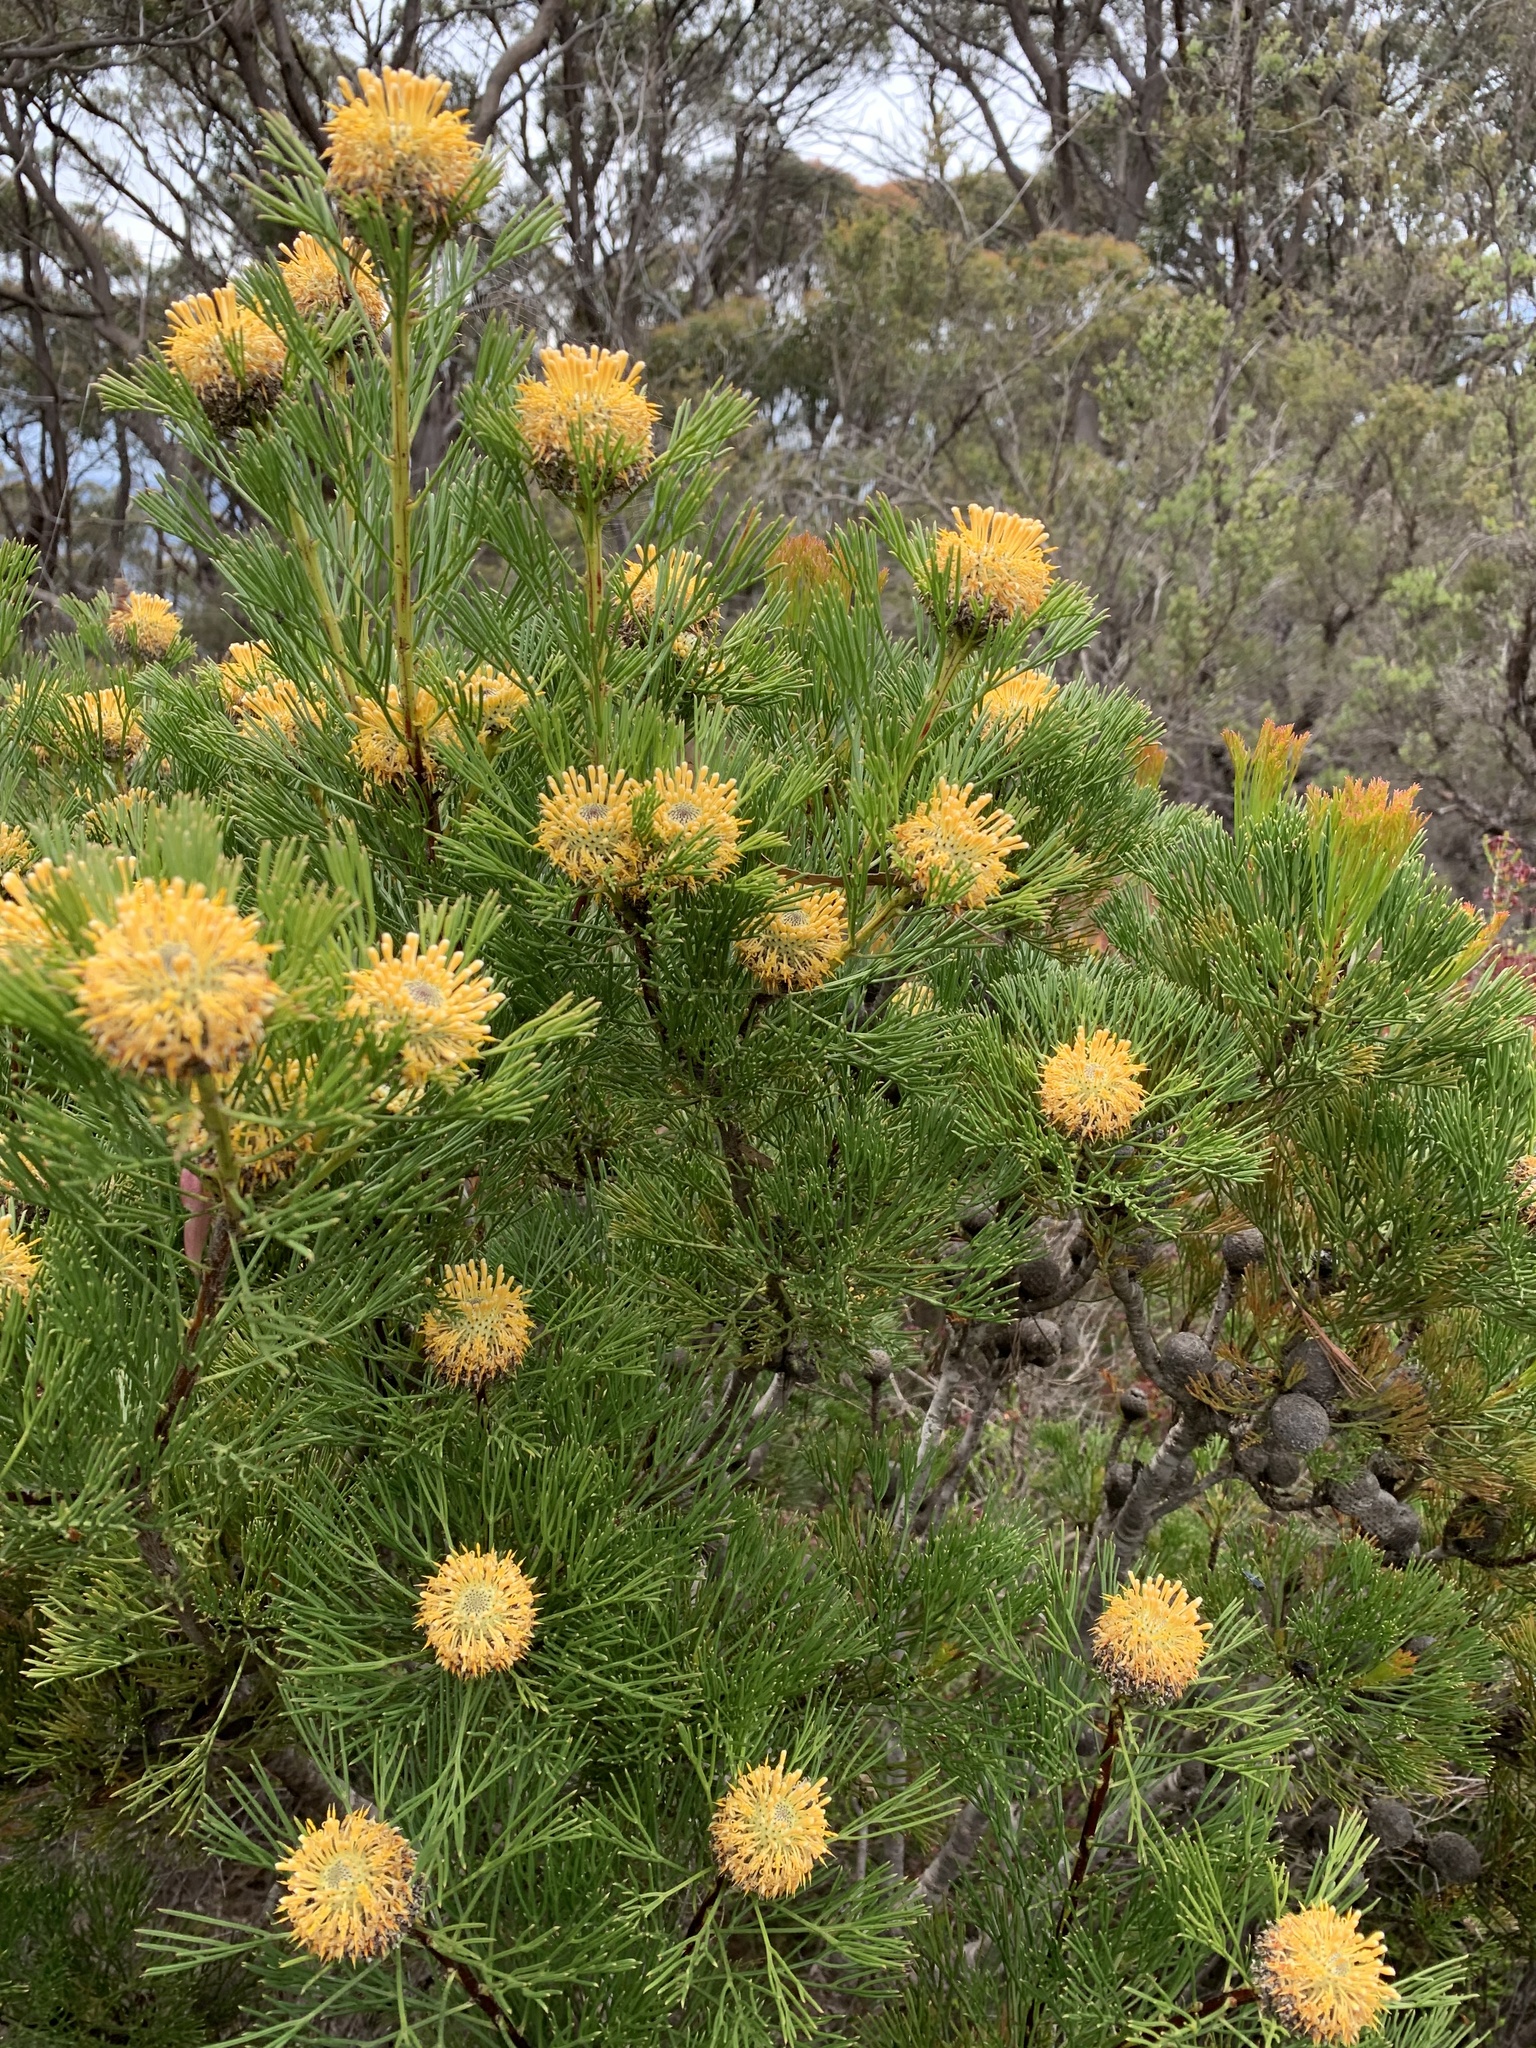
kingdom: Plantae
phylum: Tracheophyta
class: Magnoliopsida
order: Proteales
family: Proteaceae
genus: Isopogon
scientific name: Isopogon anethifolius
